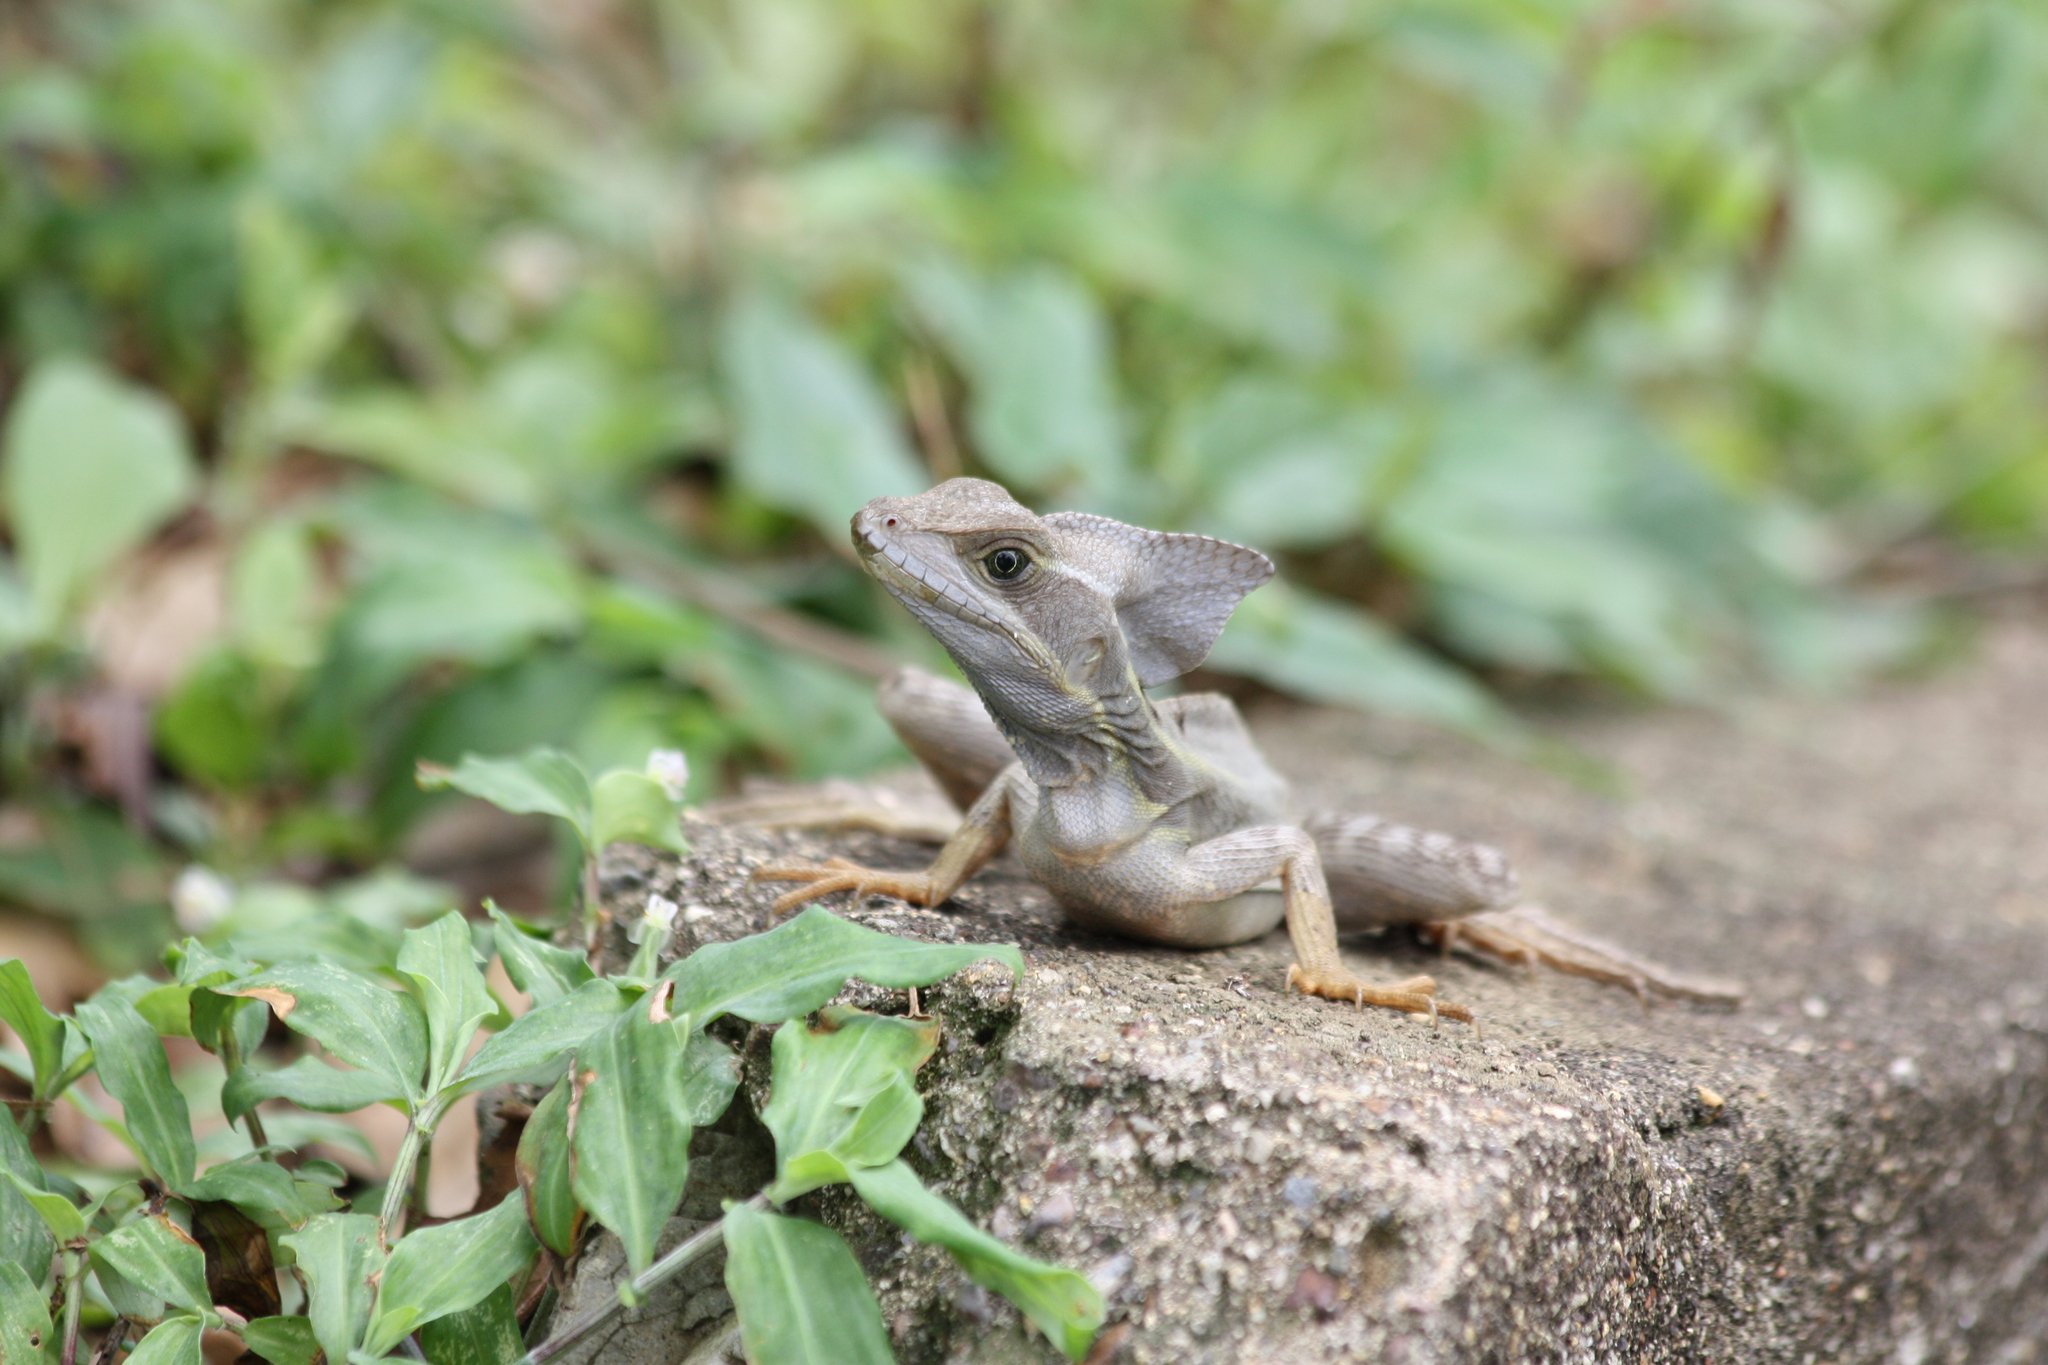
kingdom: Animalia
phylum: Chordata
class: Squamata
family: Corytophanidae
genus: Basiliscus
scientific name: Basiliscus vittatus
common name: Brown basilisk
